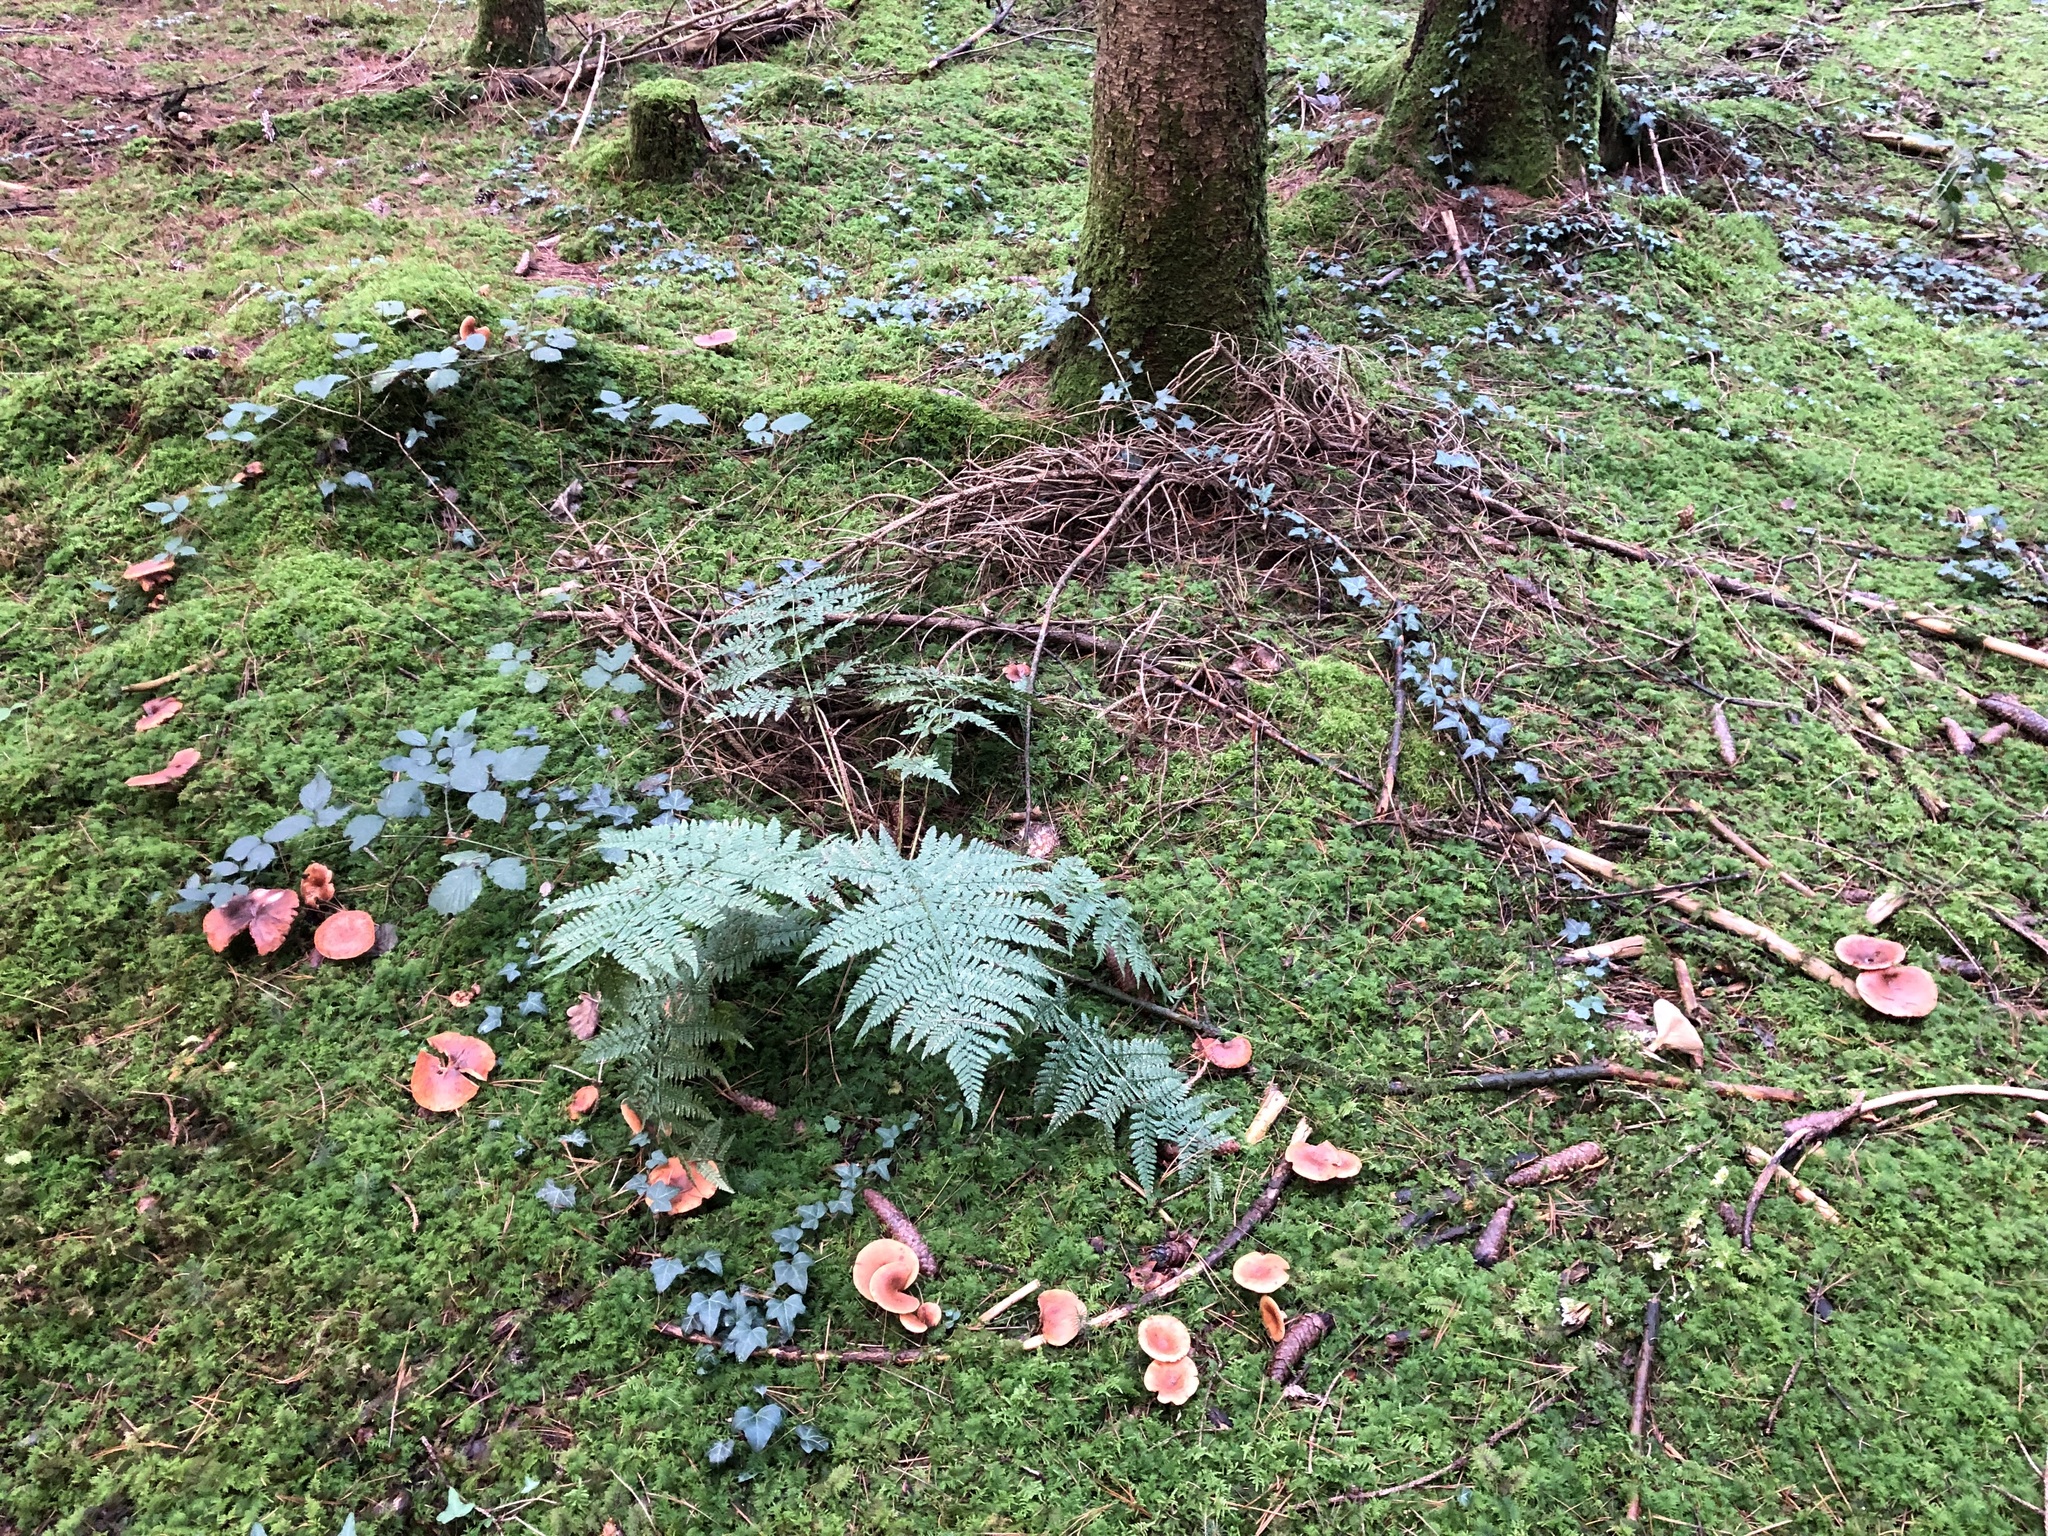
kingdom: Fungi
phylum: Basidiomycota
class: Agaricomycetes
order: Agaricales
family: Tricholomataceae
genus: Paralepista
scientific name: Paralepista flaccida
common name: Tawny funnel cap
